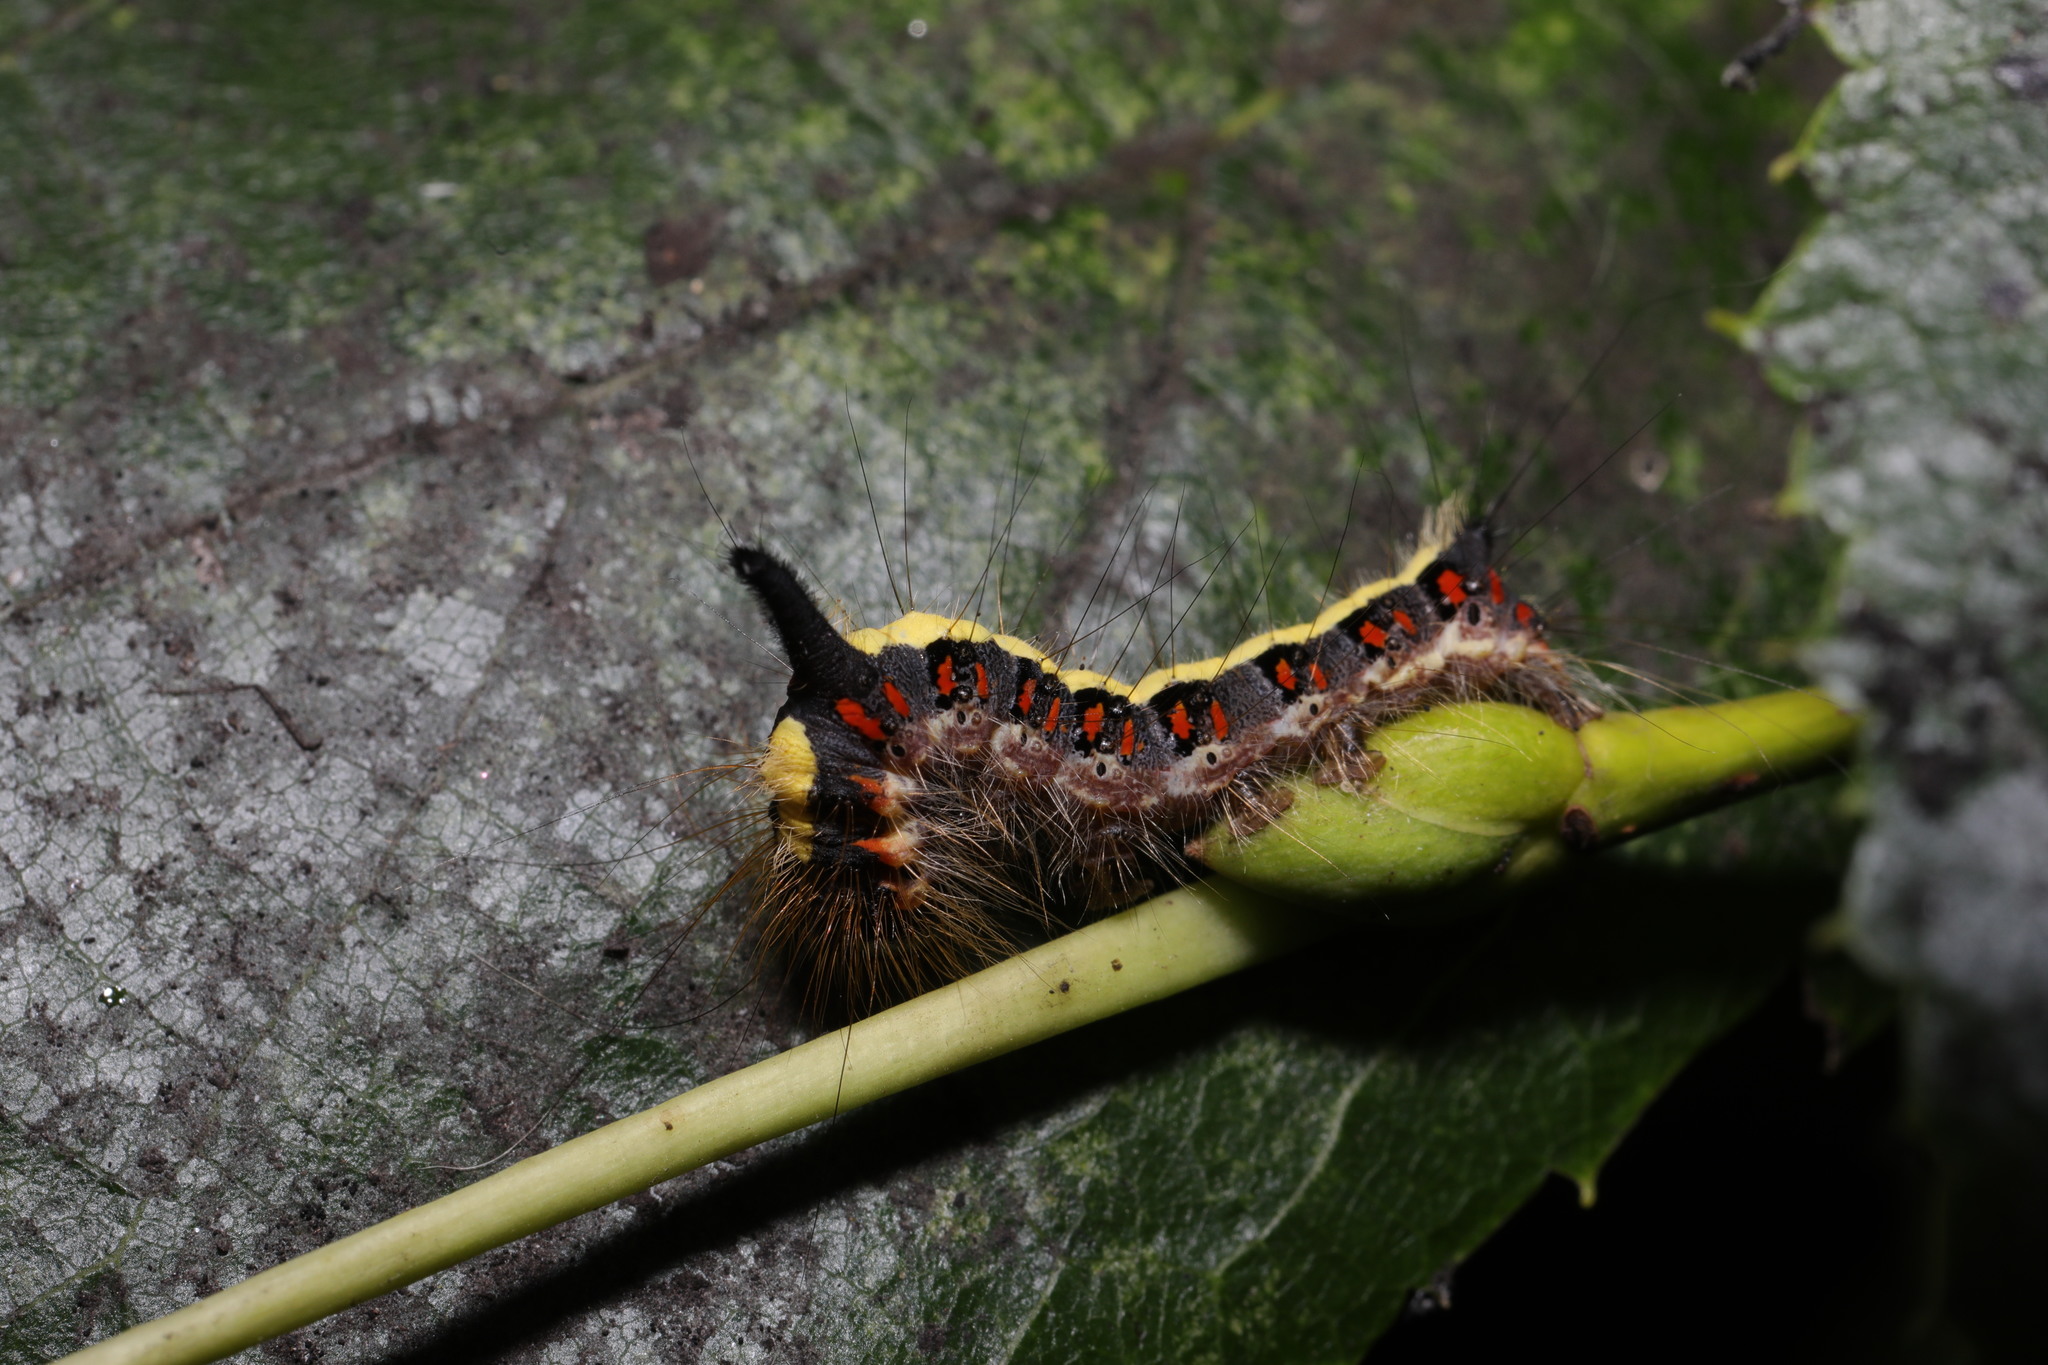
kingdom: Animalia
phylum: Arthropoda
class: Insecta
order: Lepidoptera
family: Noctuidae
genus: Acronicta
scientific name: Acronicta psi
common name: Grey dagger
